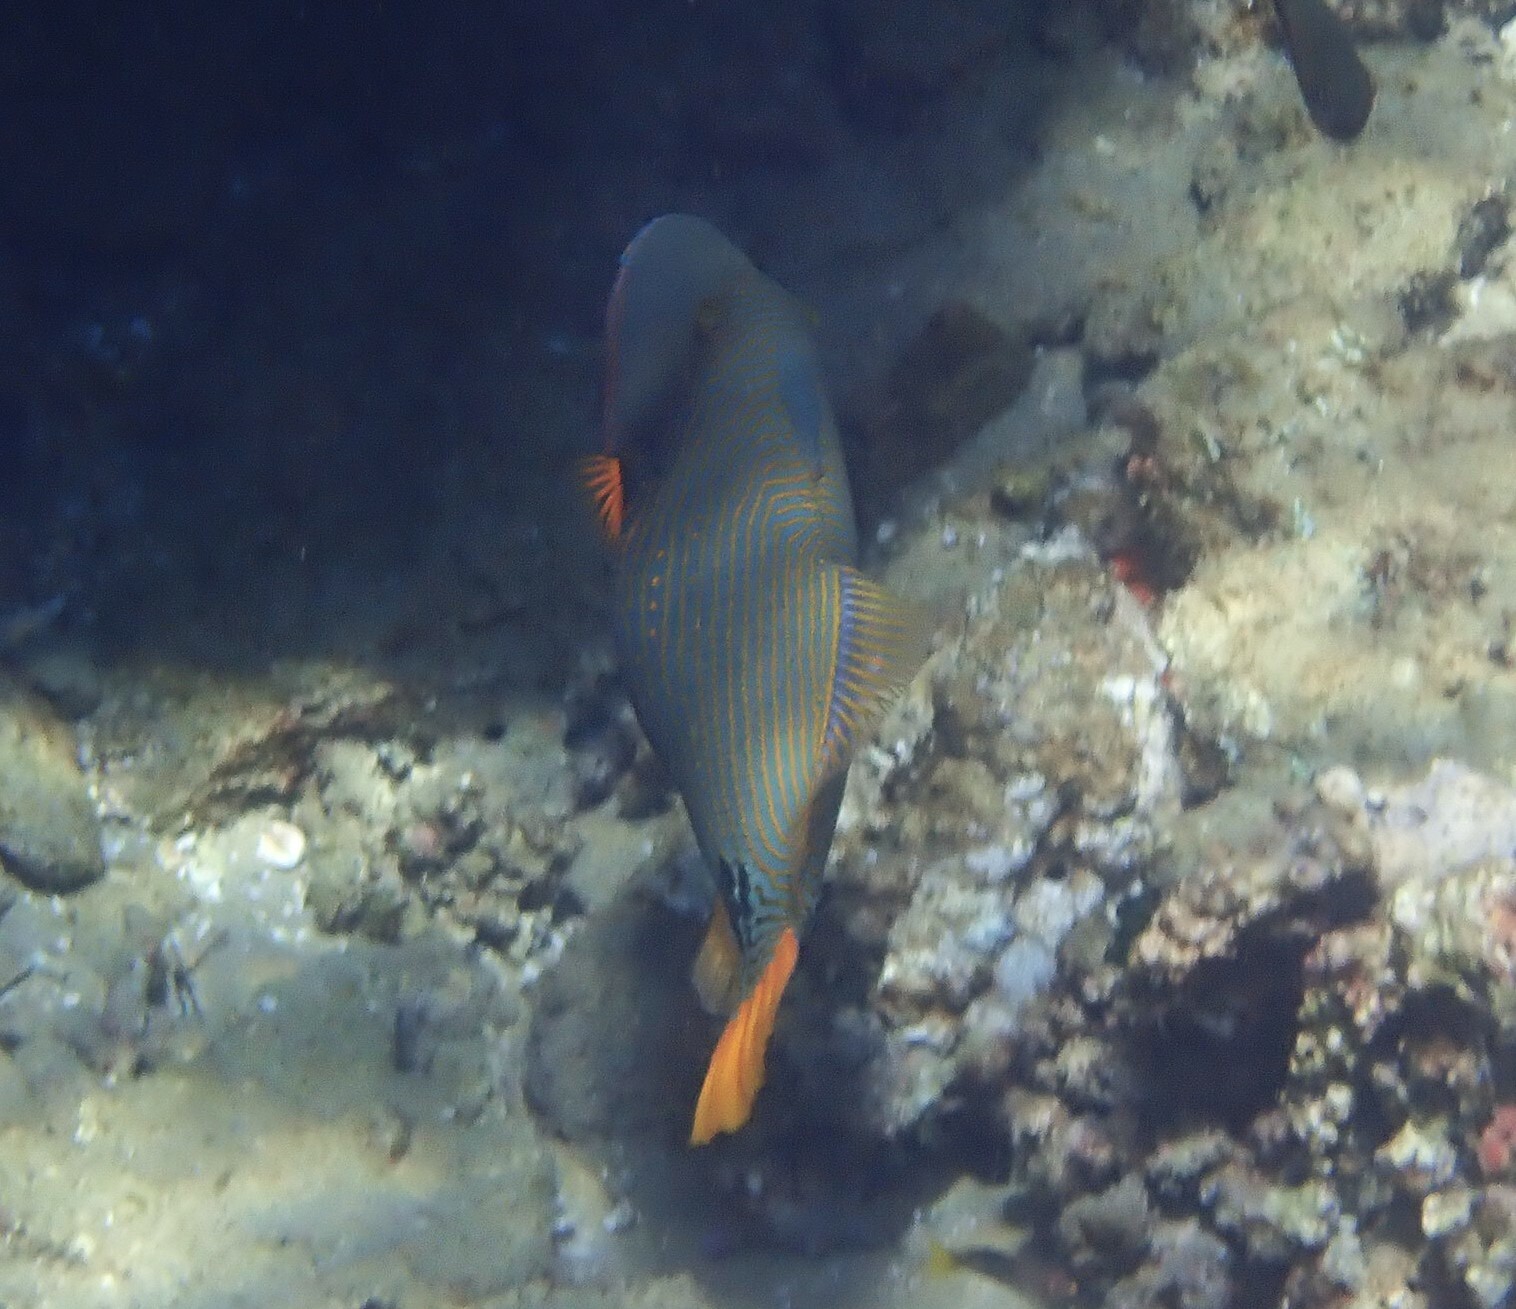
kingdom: Animalia
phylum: Chordata
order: Tetraodontiformes
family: Balistidae
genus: Balistapus
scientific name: Balistapus undulatus
